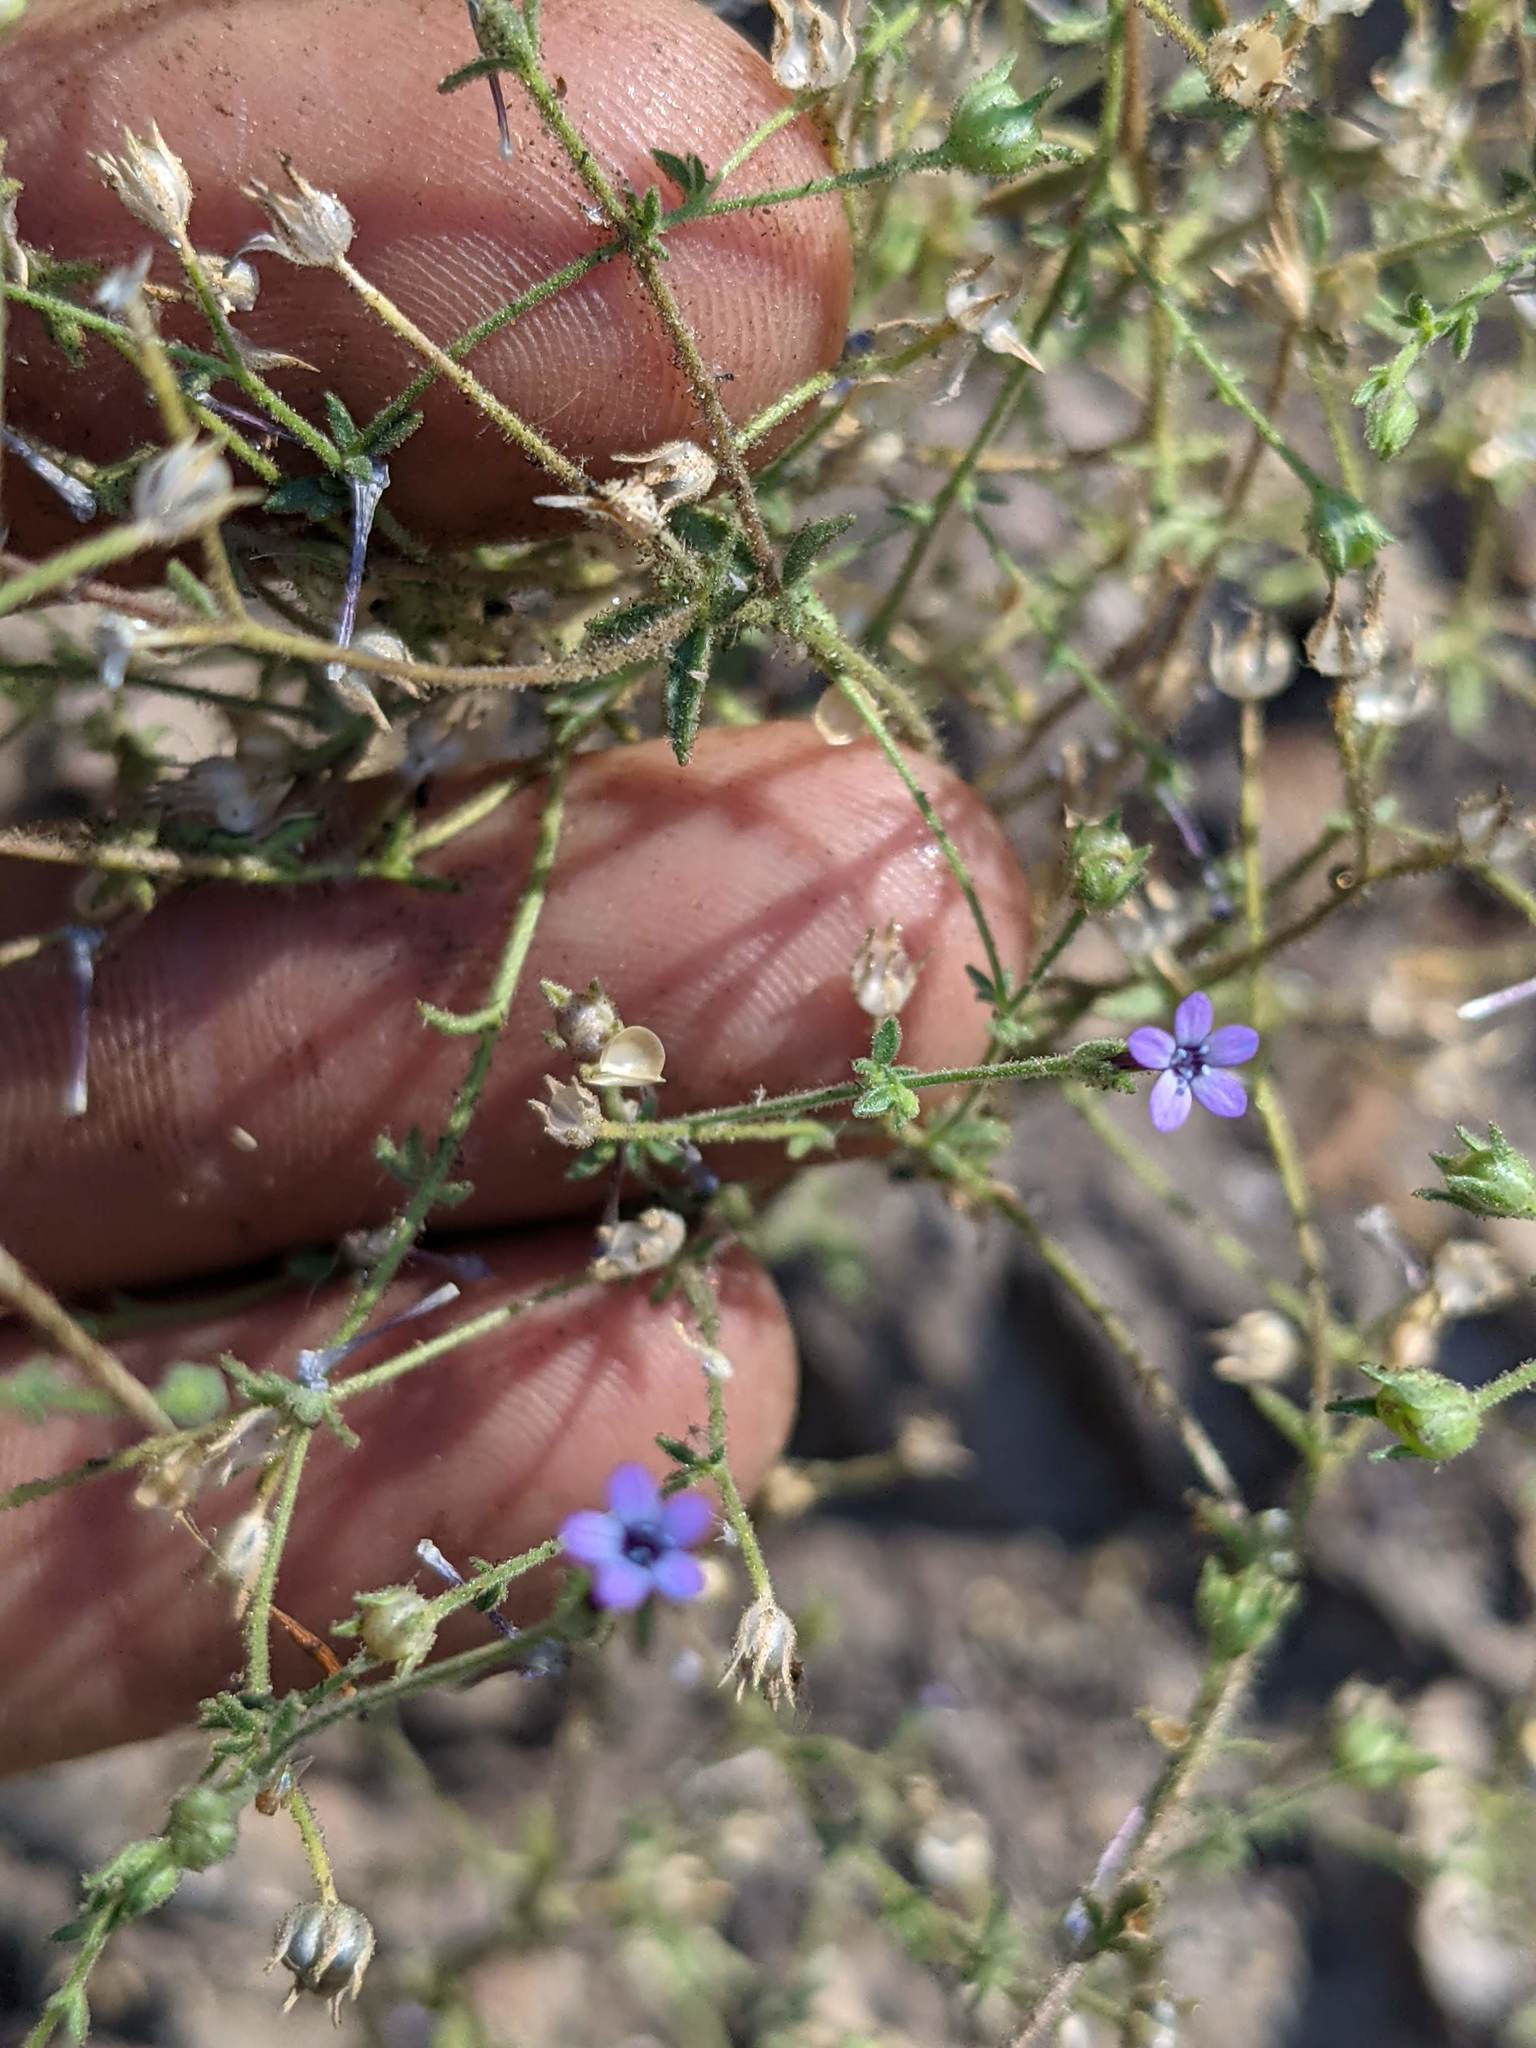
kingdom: Plantae
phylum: Tracheophyta
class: Magnoliopsida
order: Ericales
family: Polemoniaceae
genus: Allophyllum
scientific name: Allophyllum gilioides
